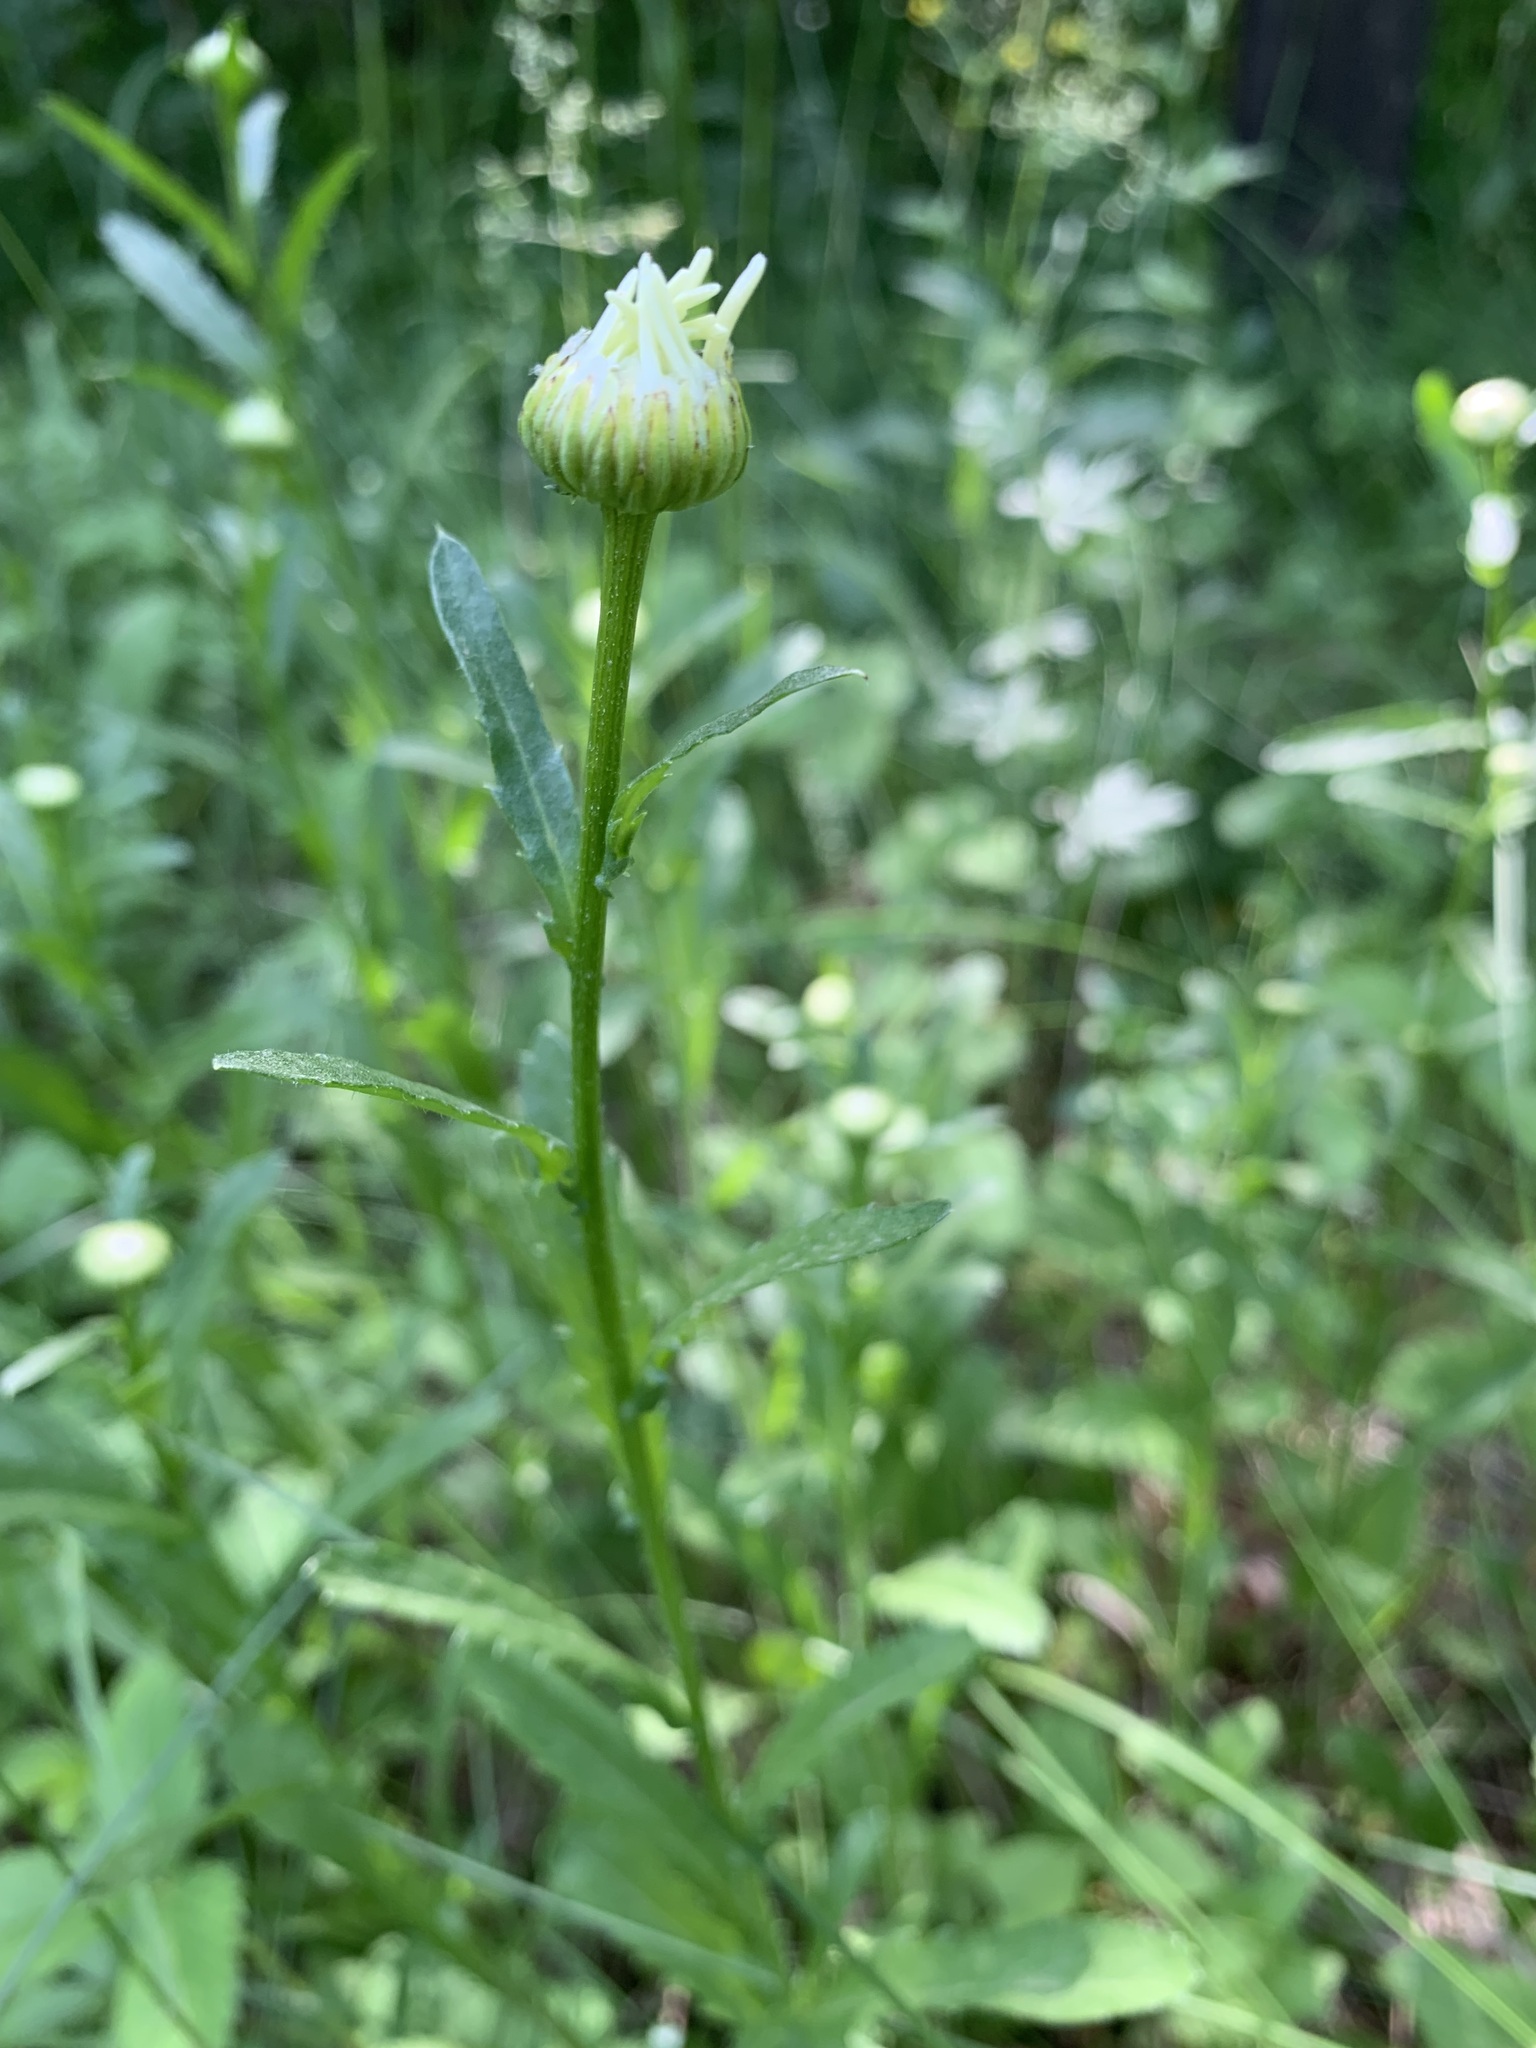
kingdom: Plantae
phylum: Tracheophyta
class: Magnoliopsida
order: Asterales
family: Asteraceae
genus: Leucanthemum
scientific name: Leucanthemum vulgare
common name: Oxeye daisy
